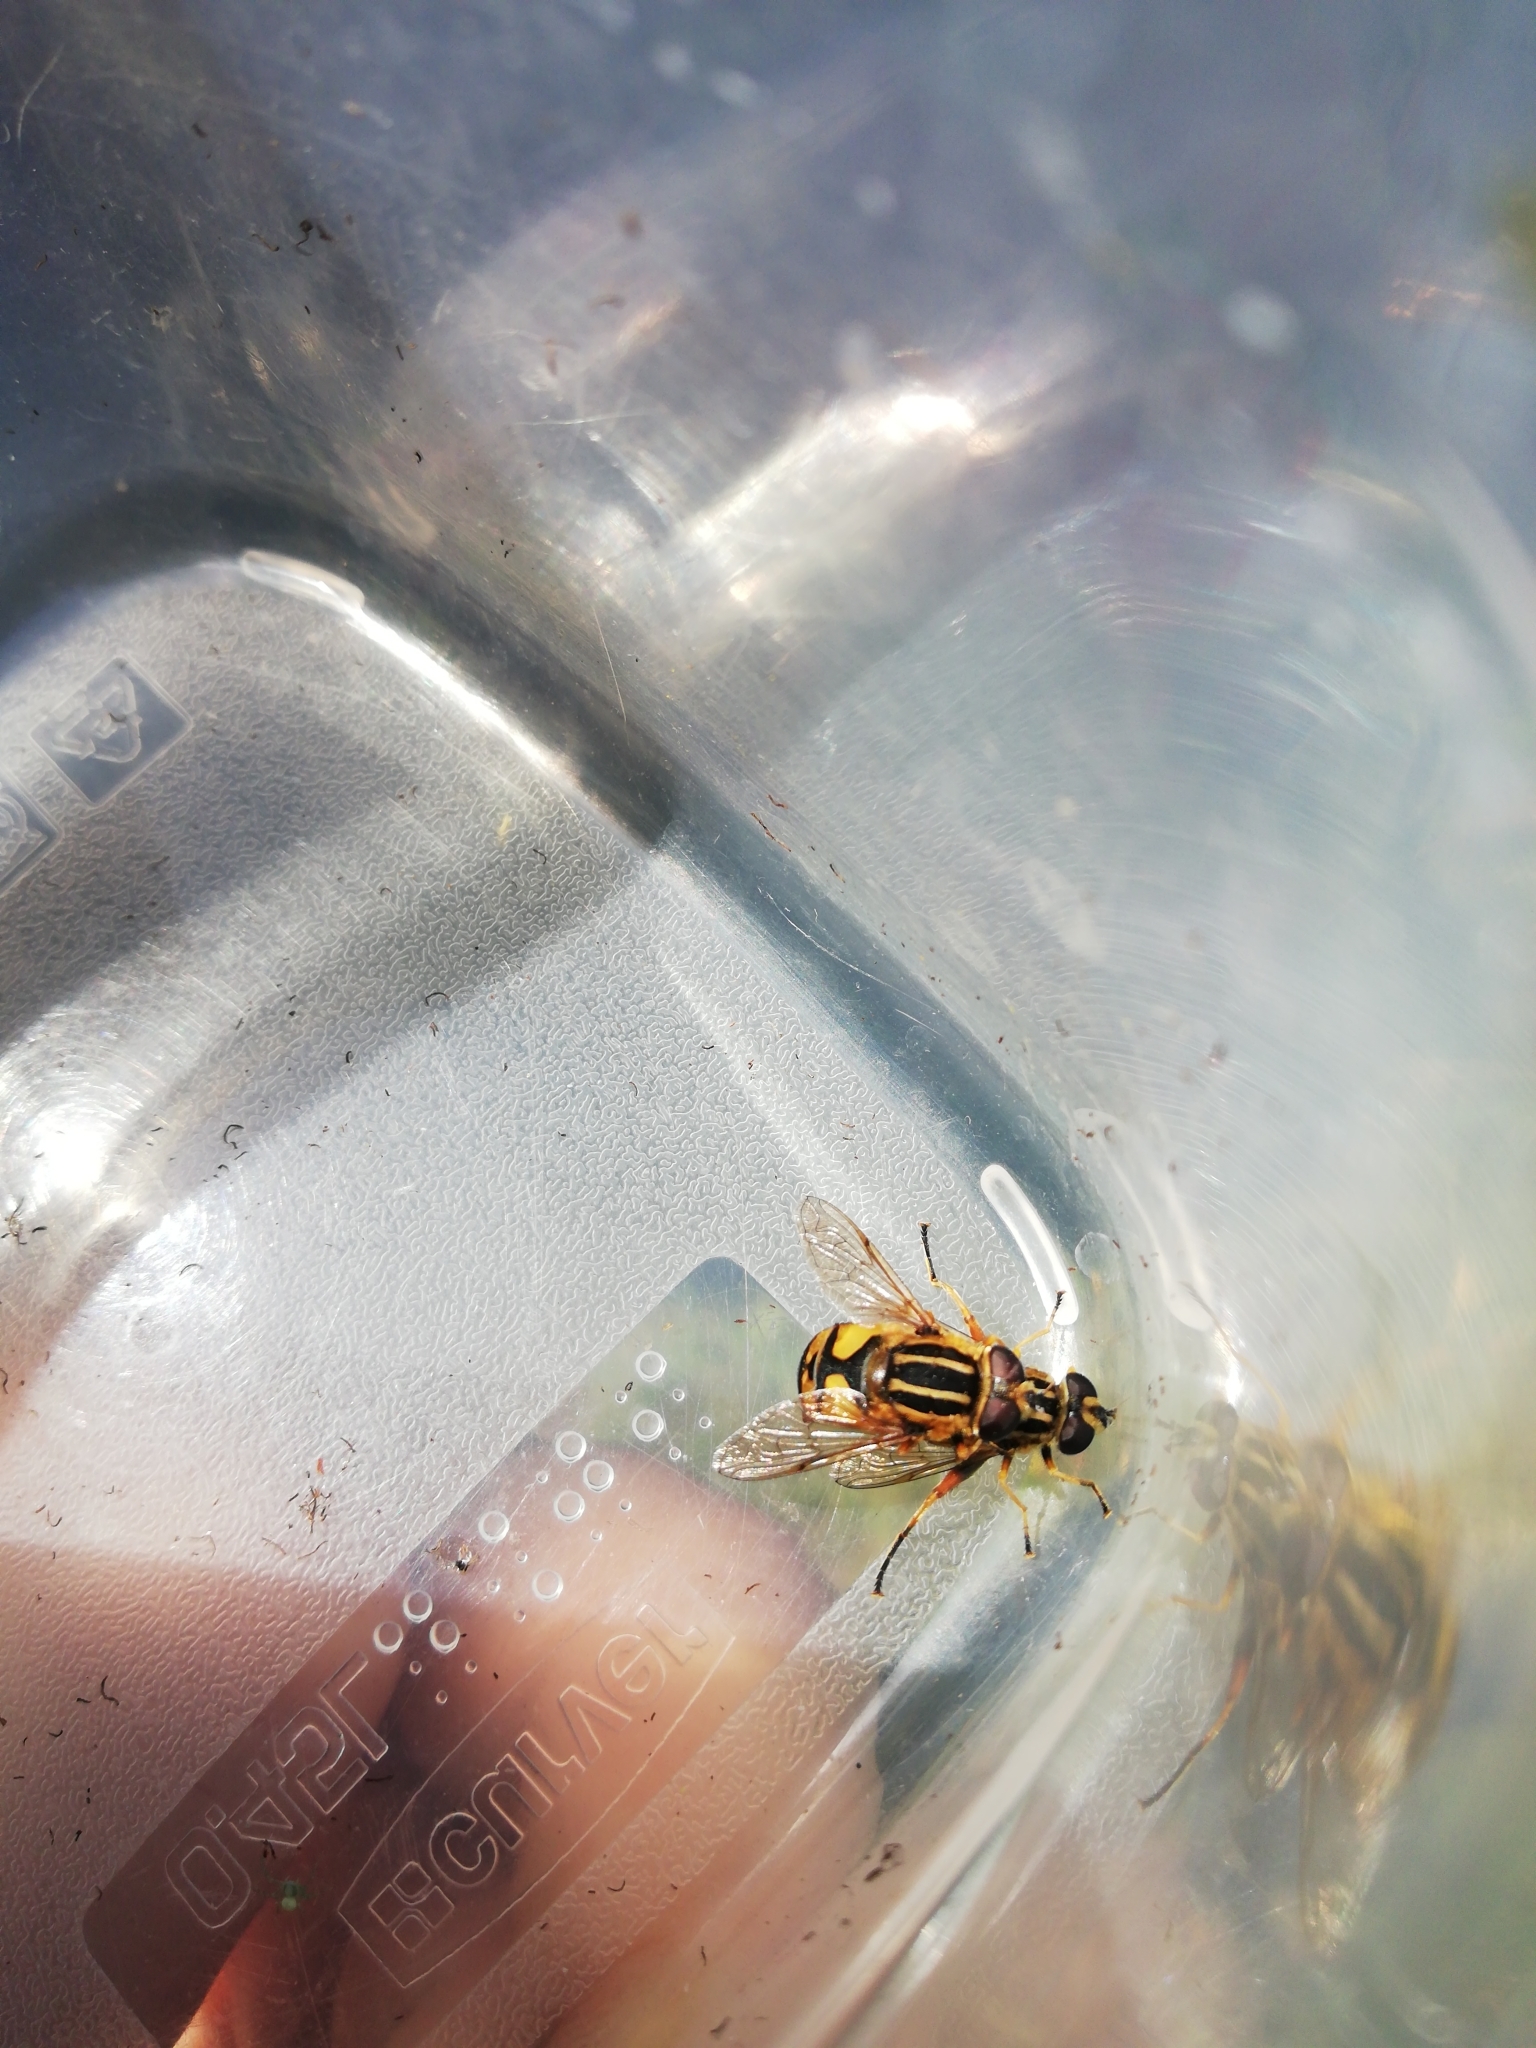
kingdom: Animalia
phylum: Arthropoda
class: Insecta
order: Diptera
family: Syrphidae
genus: Helophilus
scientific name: Helophilus pendulus
